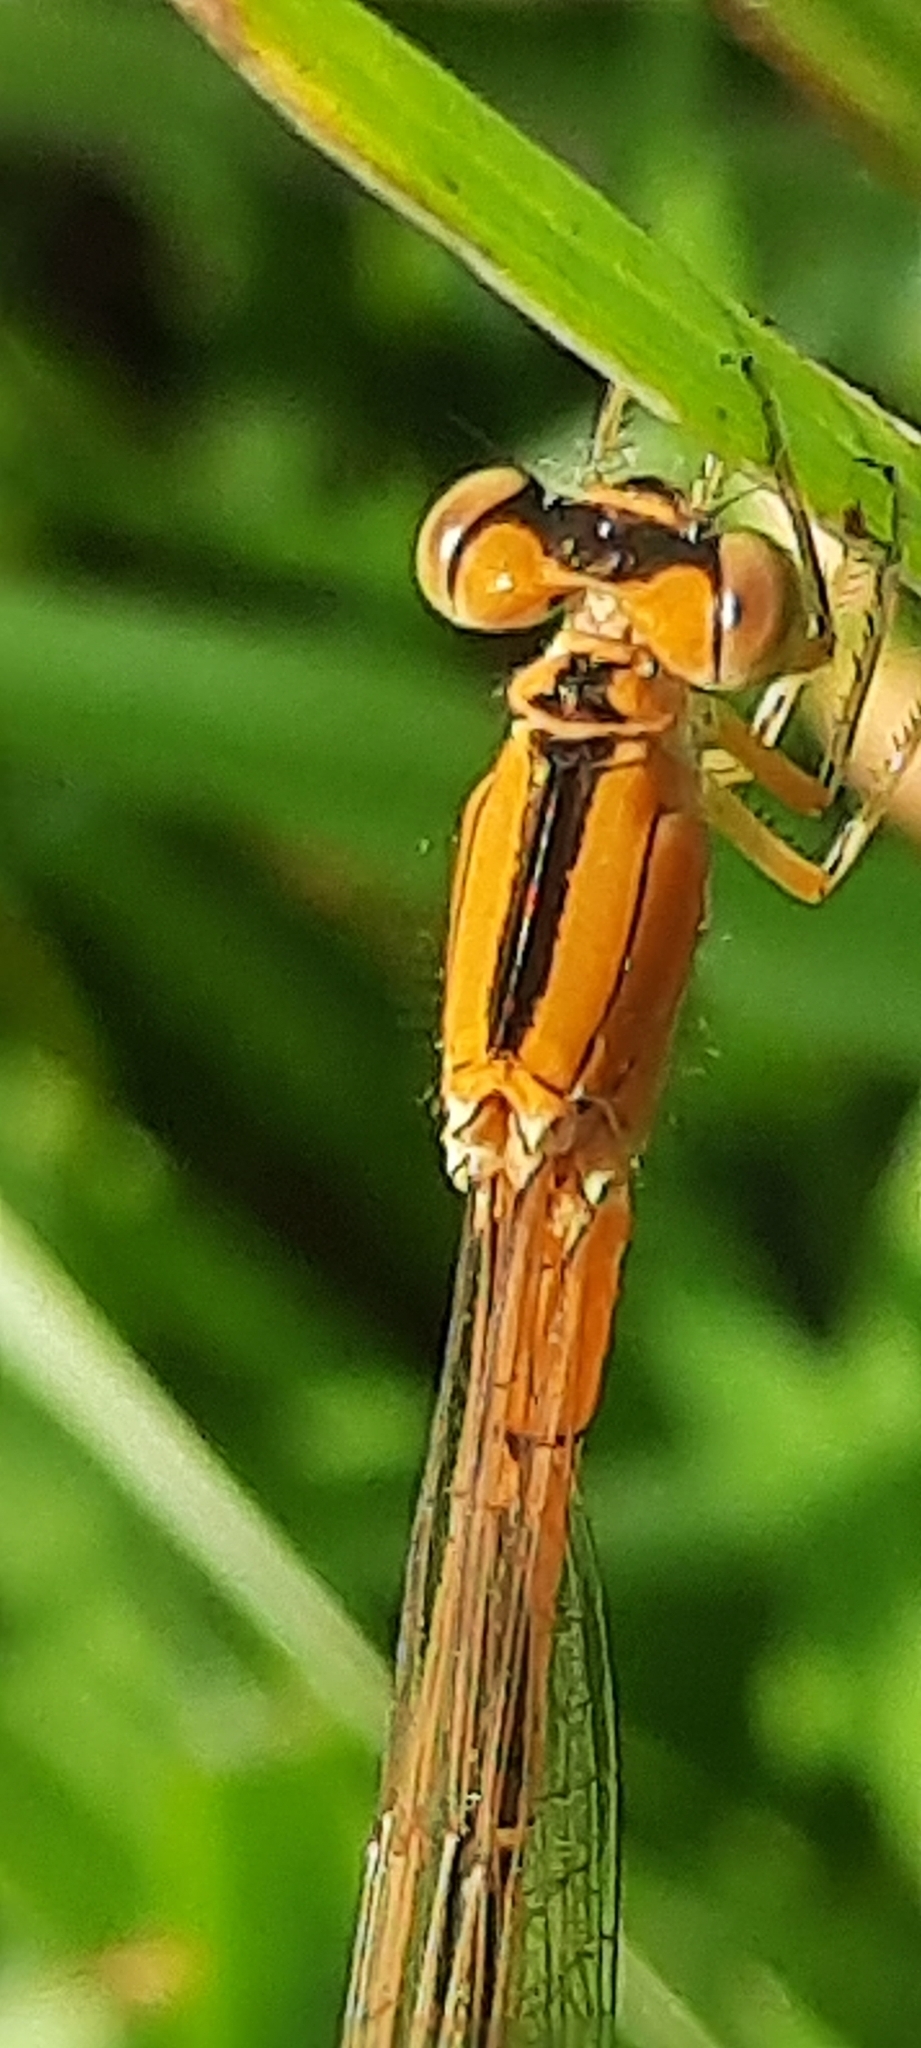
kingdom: Animalia
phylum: Arthropoda
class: Insecta
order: Odonata
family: Coenagrionidae
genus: Ischnura
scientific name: Ischnura pumilio
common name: Scarce blue-tailed damselfly
